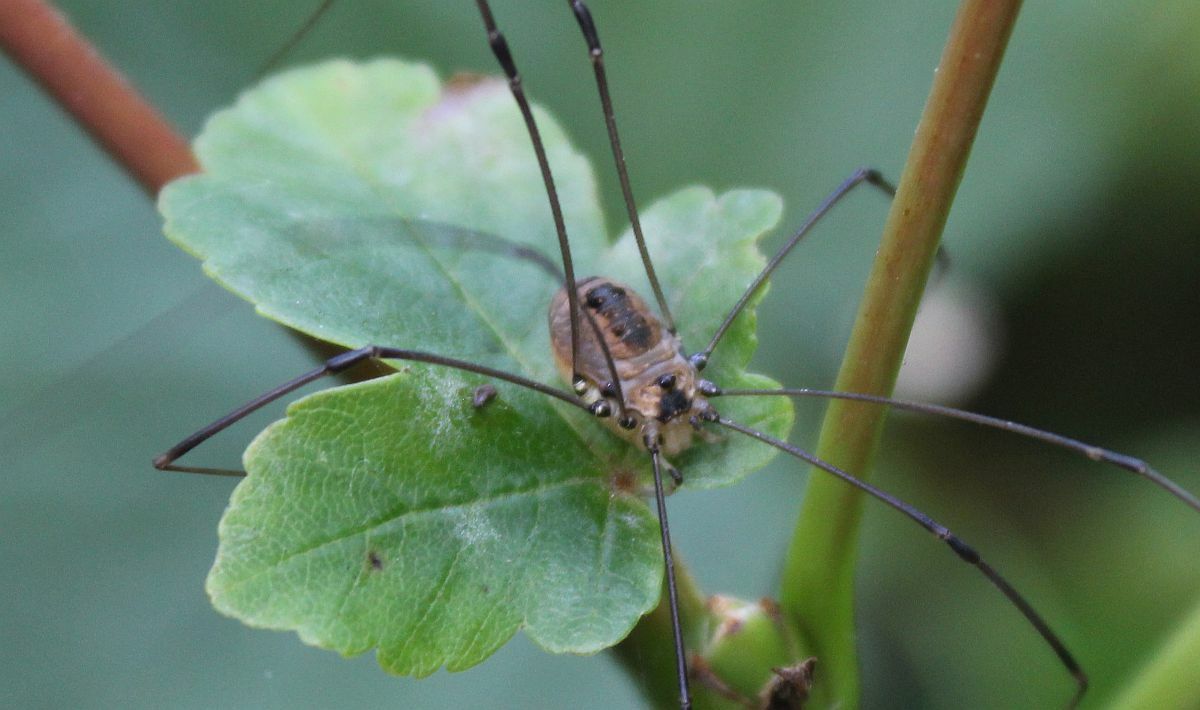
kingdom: Animalia
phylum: Arthropoda
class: Arachnida
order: Opiliones
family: Sclerosomatidae
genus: Leiobunum
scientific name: Leiobunum rotundum
